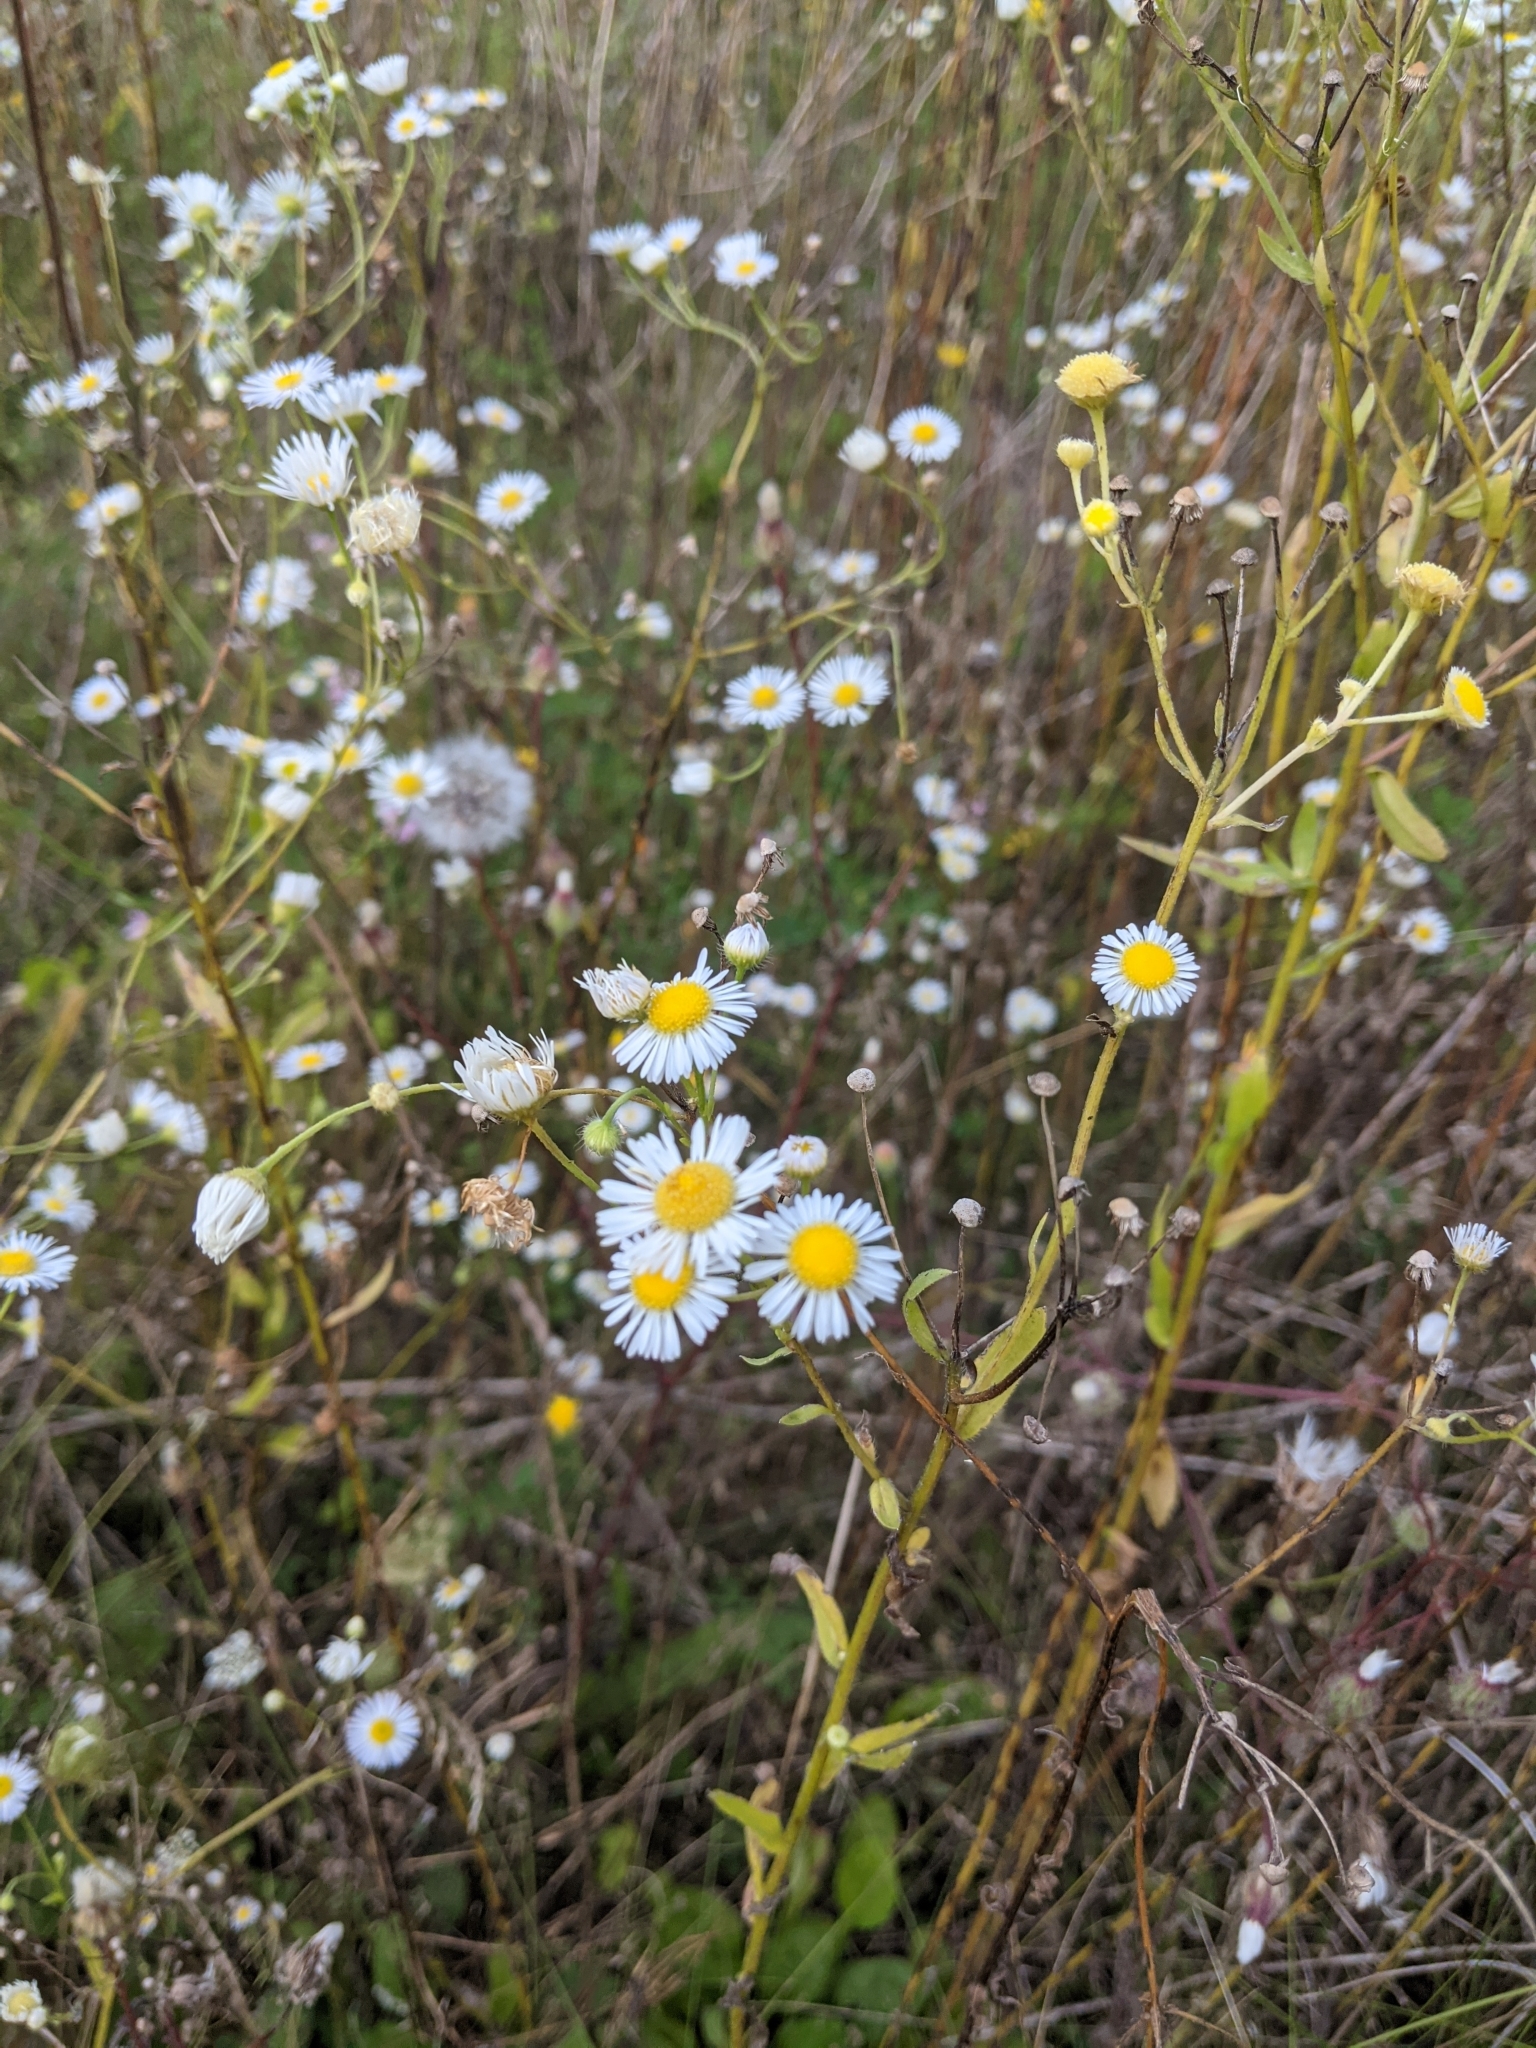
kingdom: Plantae
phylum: Tracheophyta
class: Magnoliopsida
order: Asterales
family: Asteraceae
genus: Erigeron
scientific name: Erigeron annuus
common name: Tall fleabane
